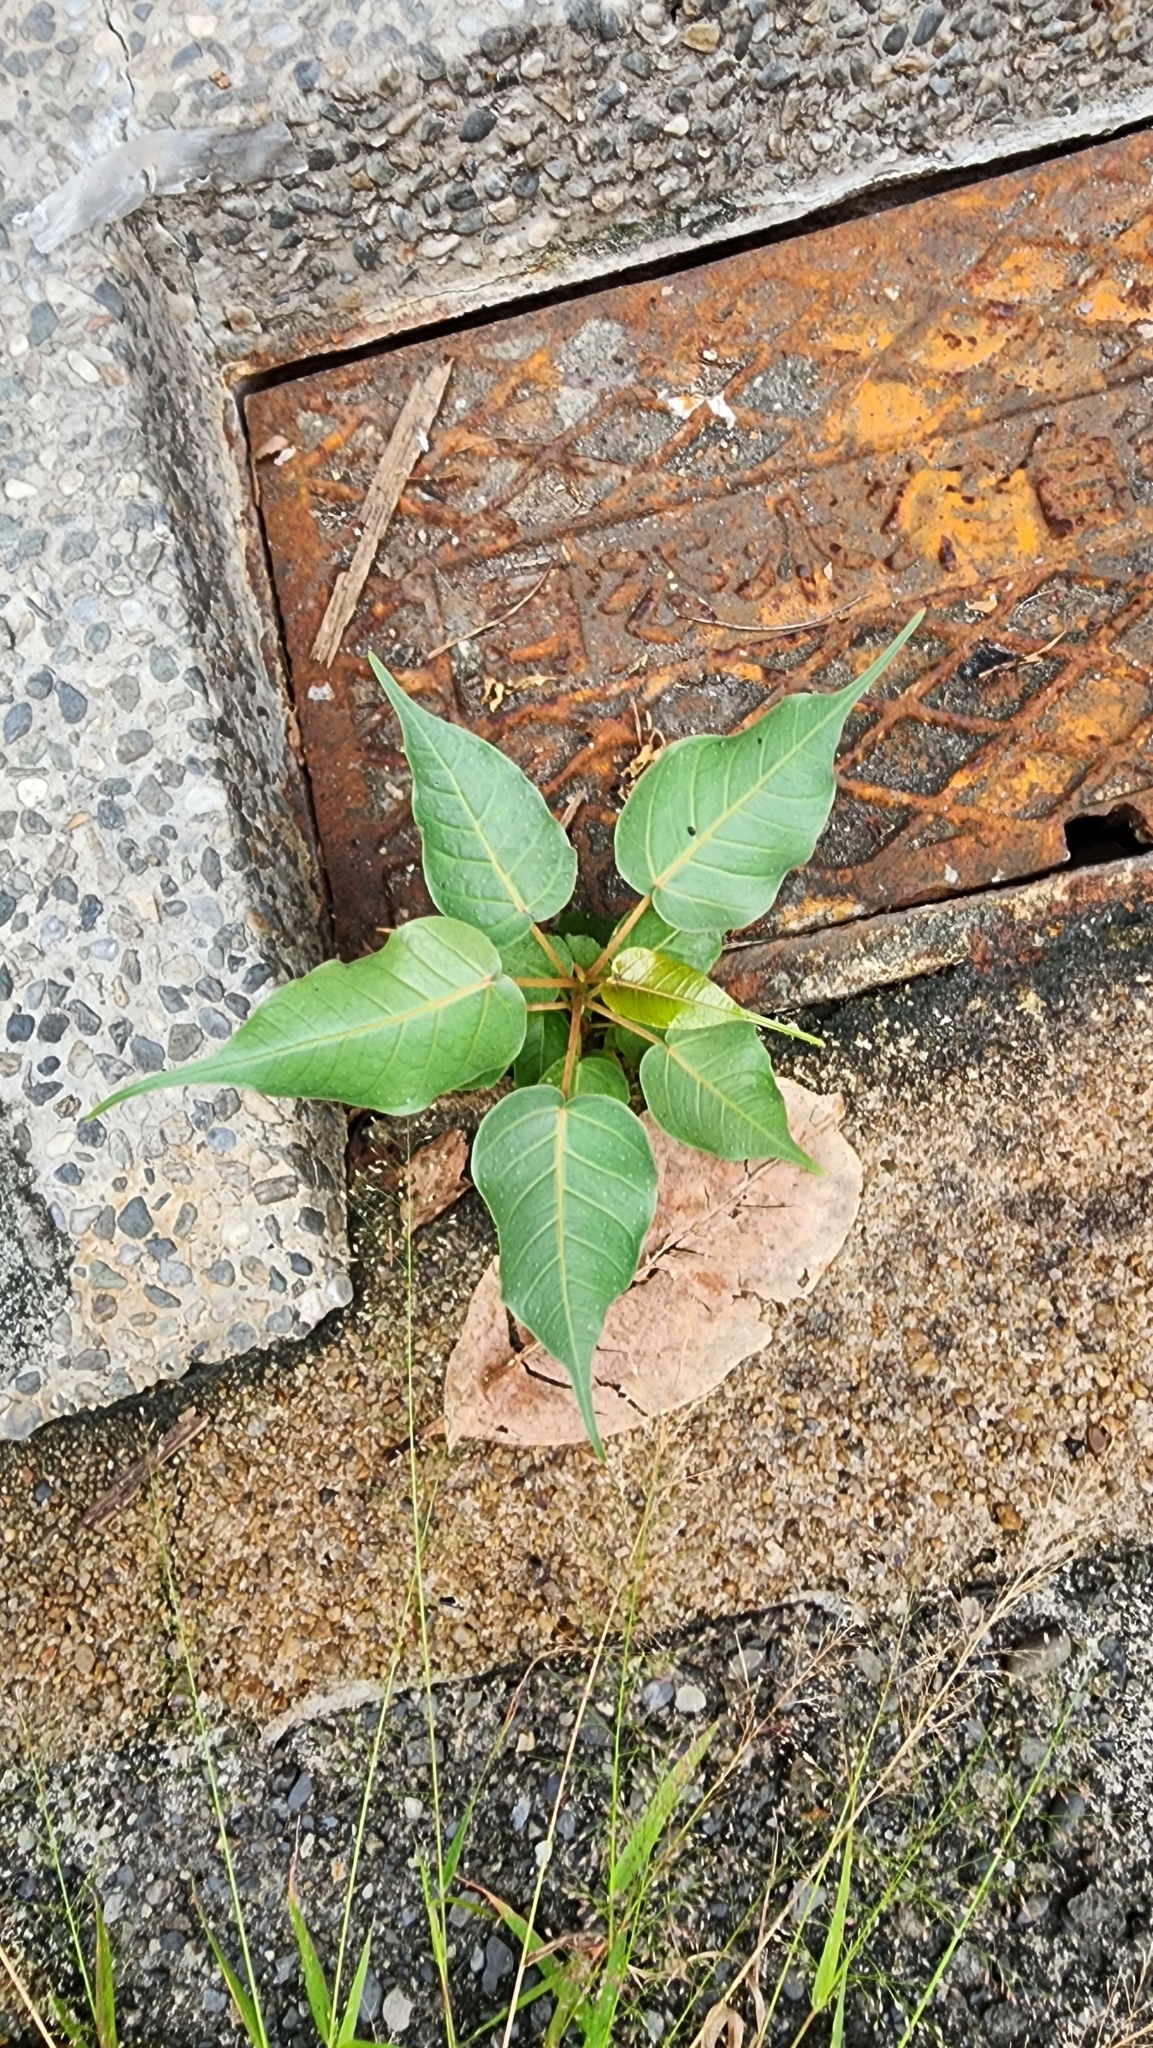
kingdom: Plantae
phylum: Tracheophyta
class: Magnoliopsida
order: Rosales
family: Moraceae
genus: Ficus
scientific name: Ficus religiosa
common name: Bodhi tree
